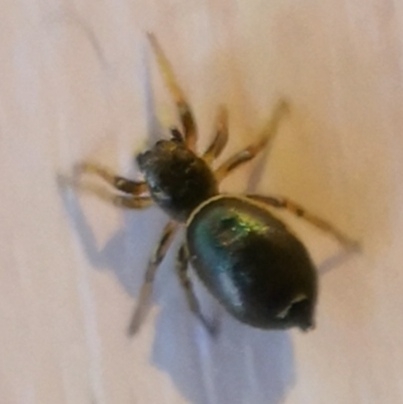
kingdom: Animalia
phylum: Arthropoda
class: Arachnida
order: Araneae
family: Salticidae
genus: Heliophanus
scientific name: Heliophanus auratus
